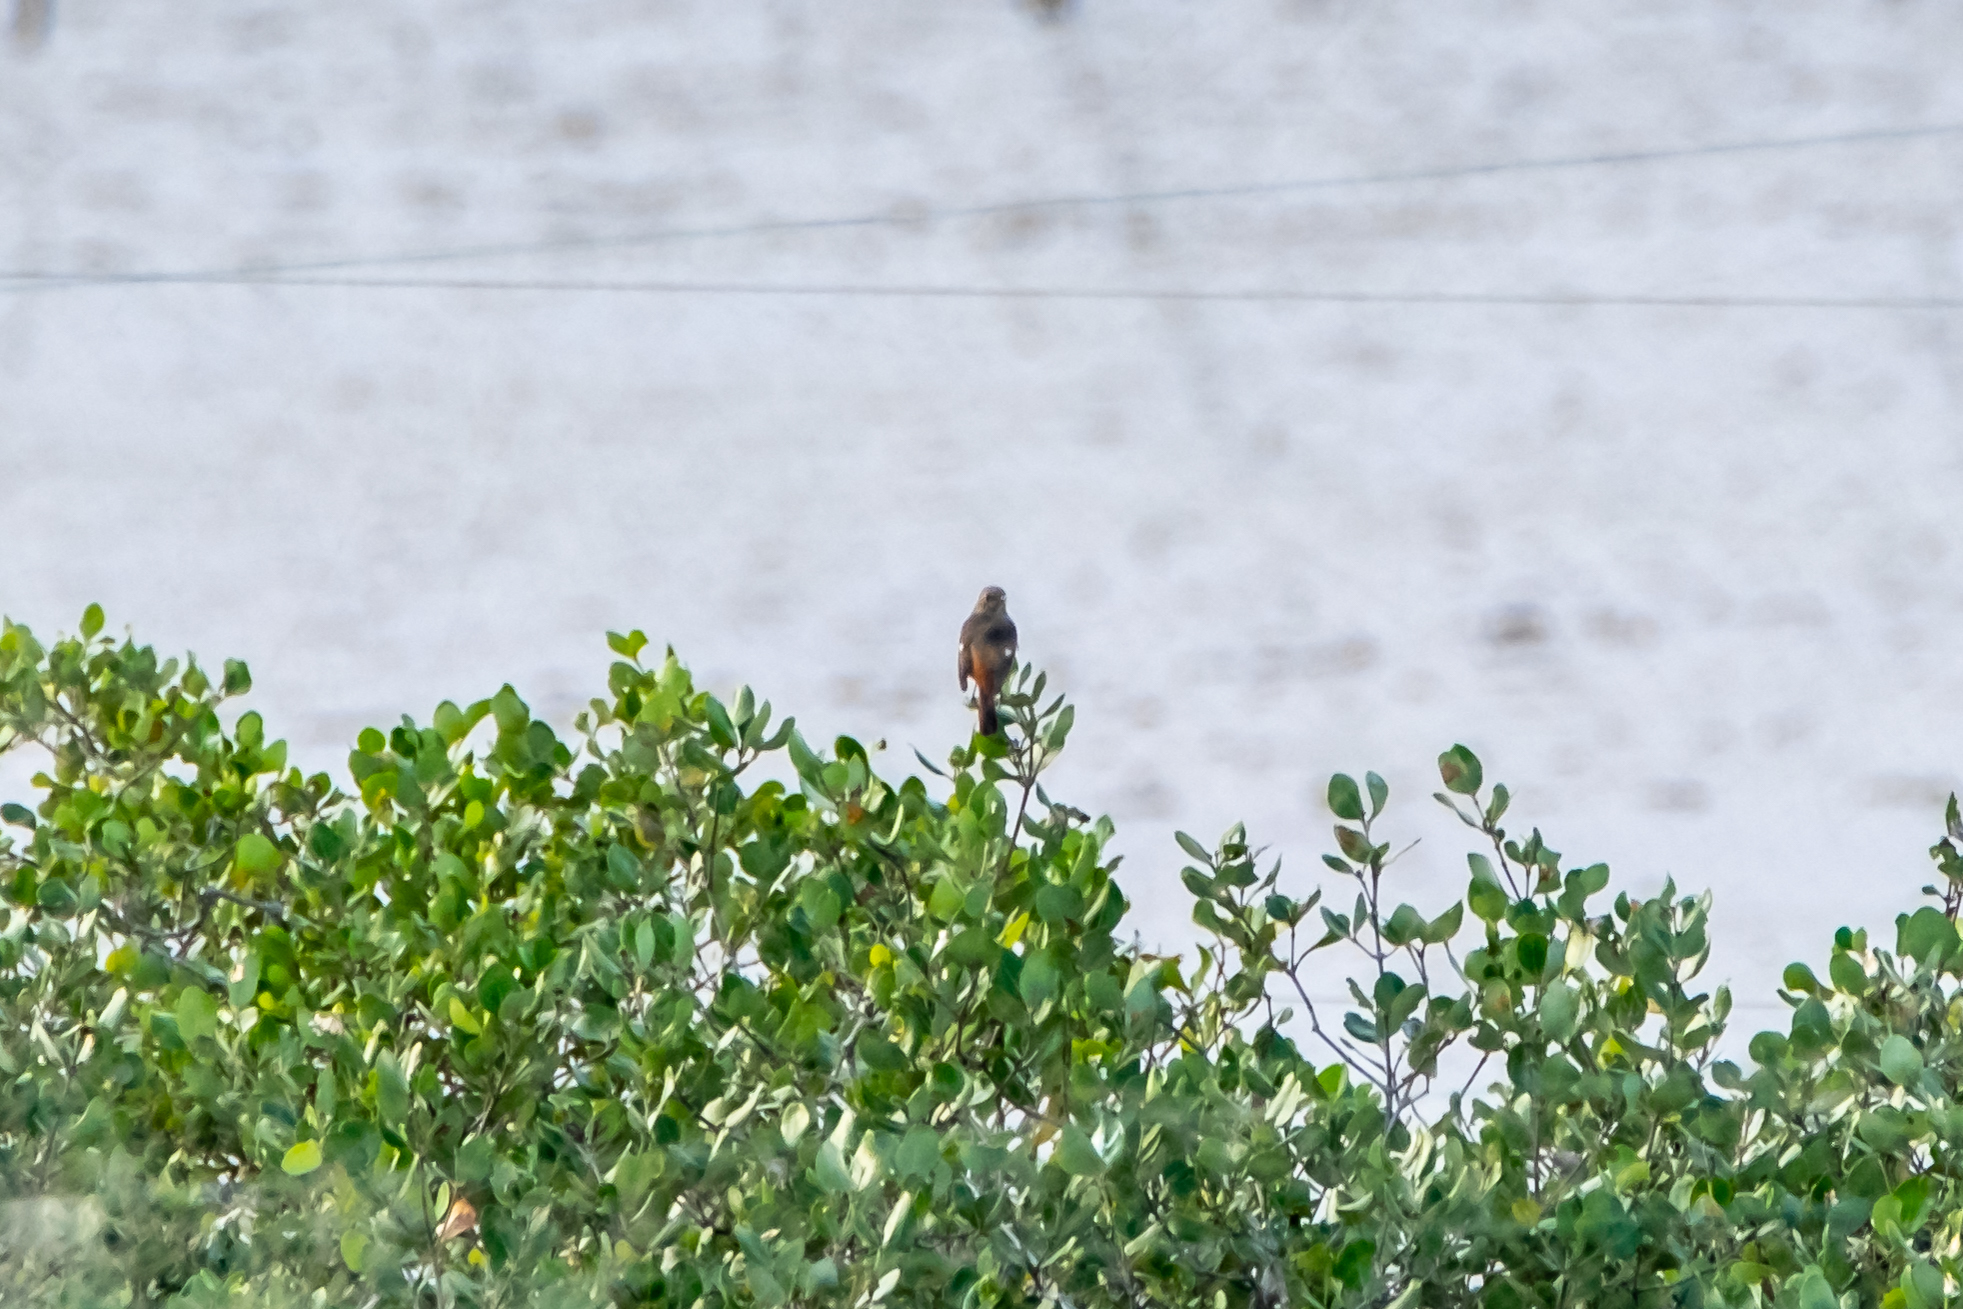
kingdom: Animalia
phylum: Chordata
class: Aves
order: Passeriformes
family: Muscicapidae
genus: Phoenicurus
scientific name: Phoenicurus auroreus
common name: Daurian redstart
